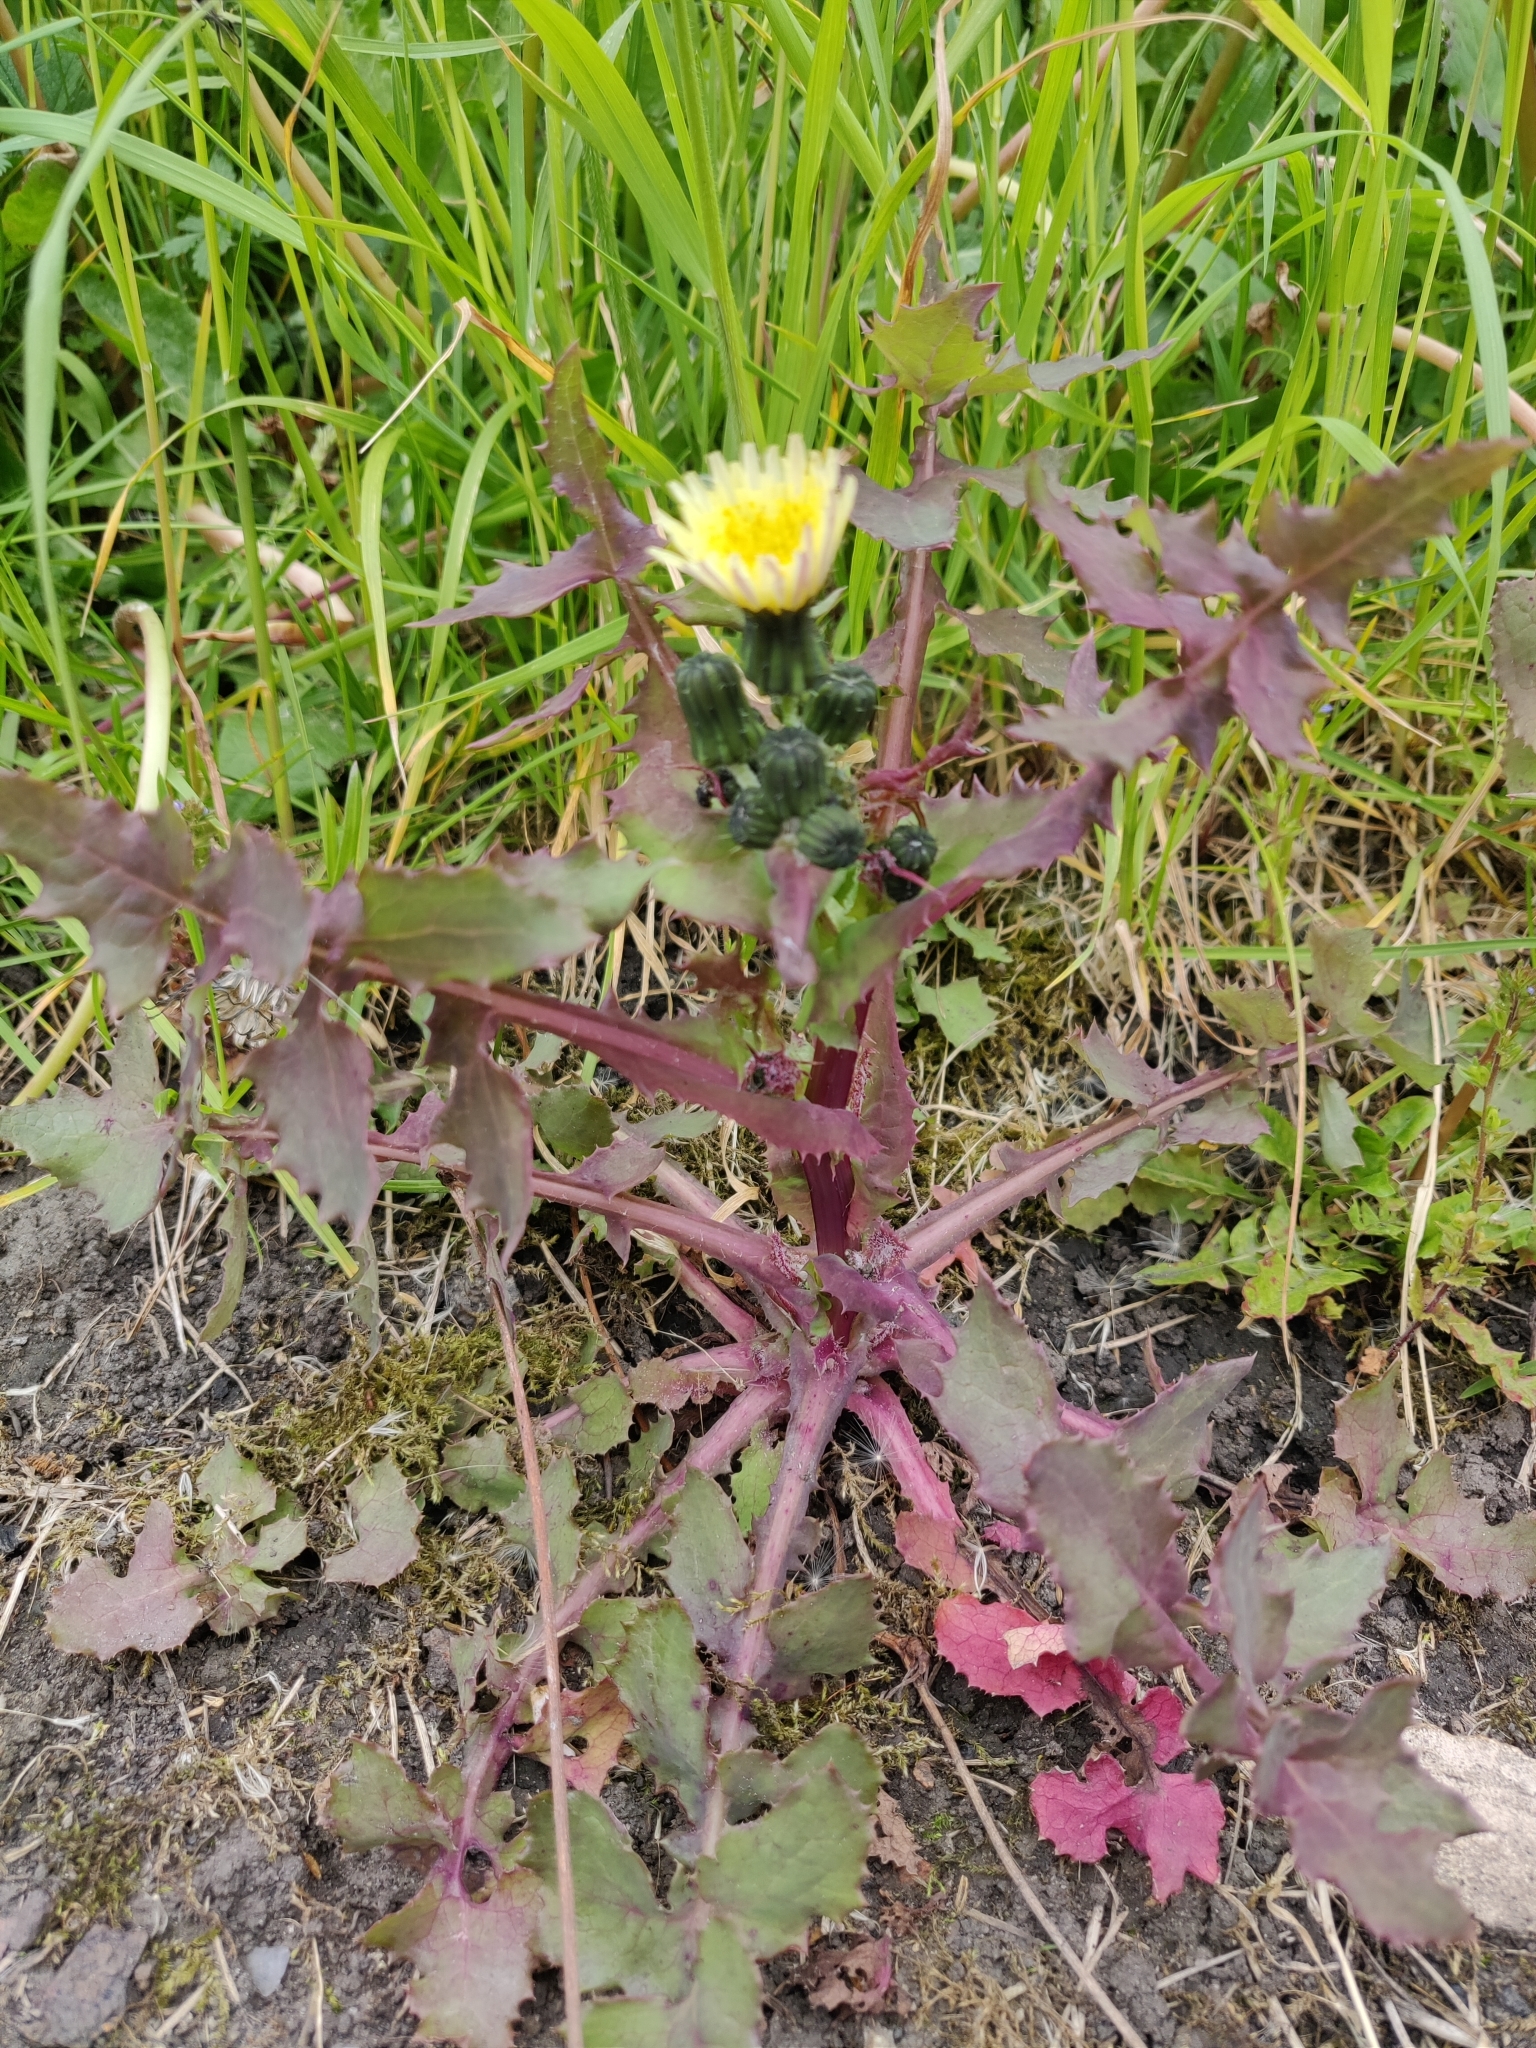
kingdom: Plantae
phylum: Tracheophyta
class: Magnoliopsida
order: Asterales
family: Asteraceae
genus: Sonchus
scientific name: Sonchus oleraceus
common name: Common sowthistle
